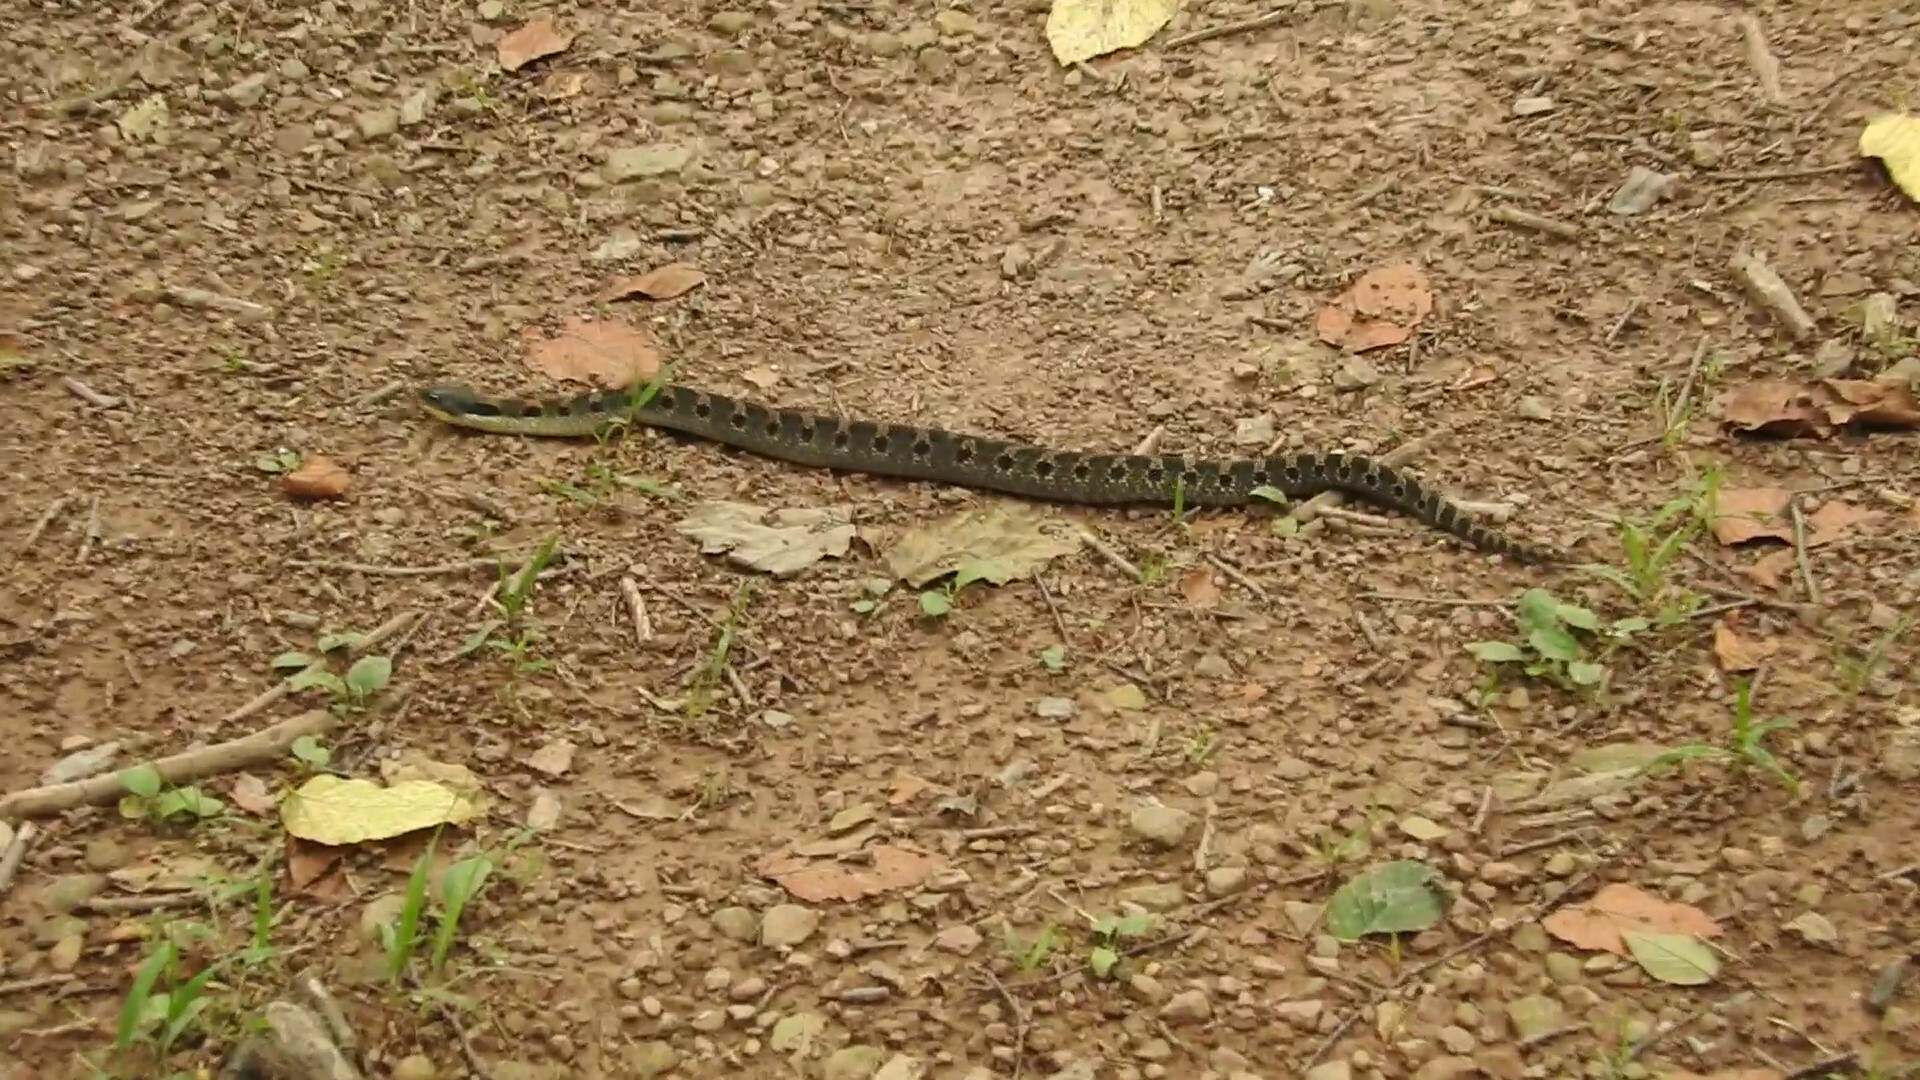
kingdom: Animalia
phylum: Chordata
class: Squamata
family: Colubridae
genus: Heterodon
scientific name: Heterodon platirhinos
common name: Eastern hognose snake
